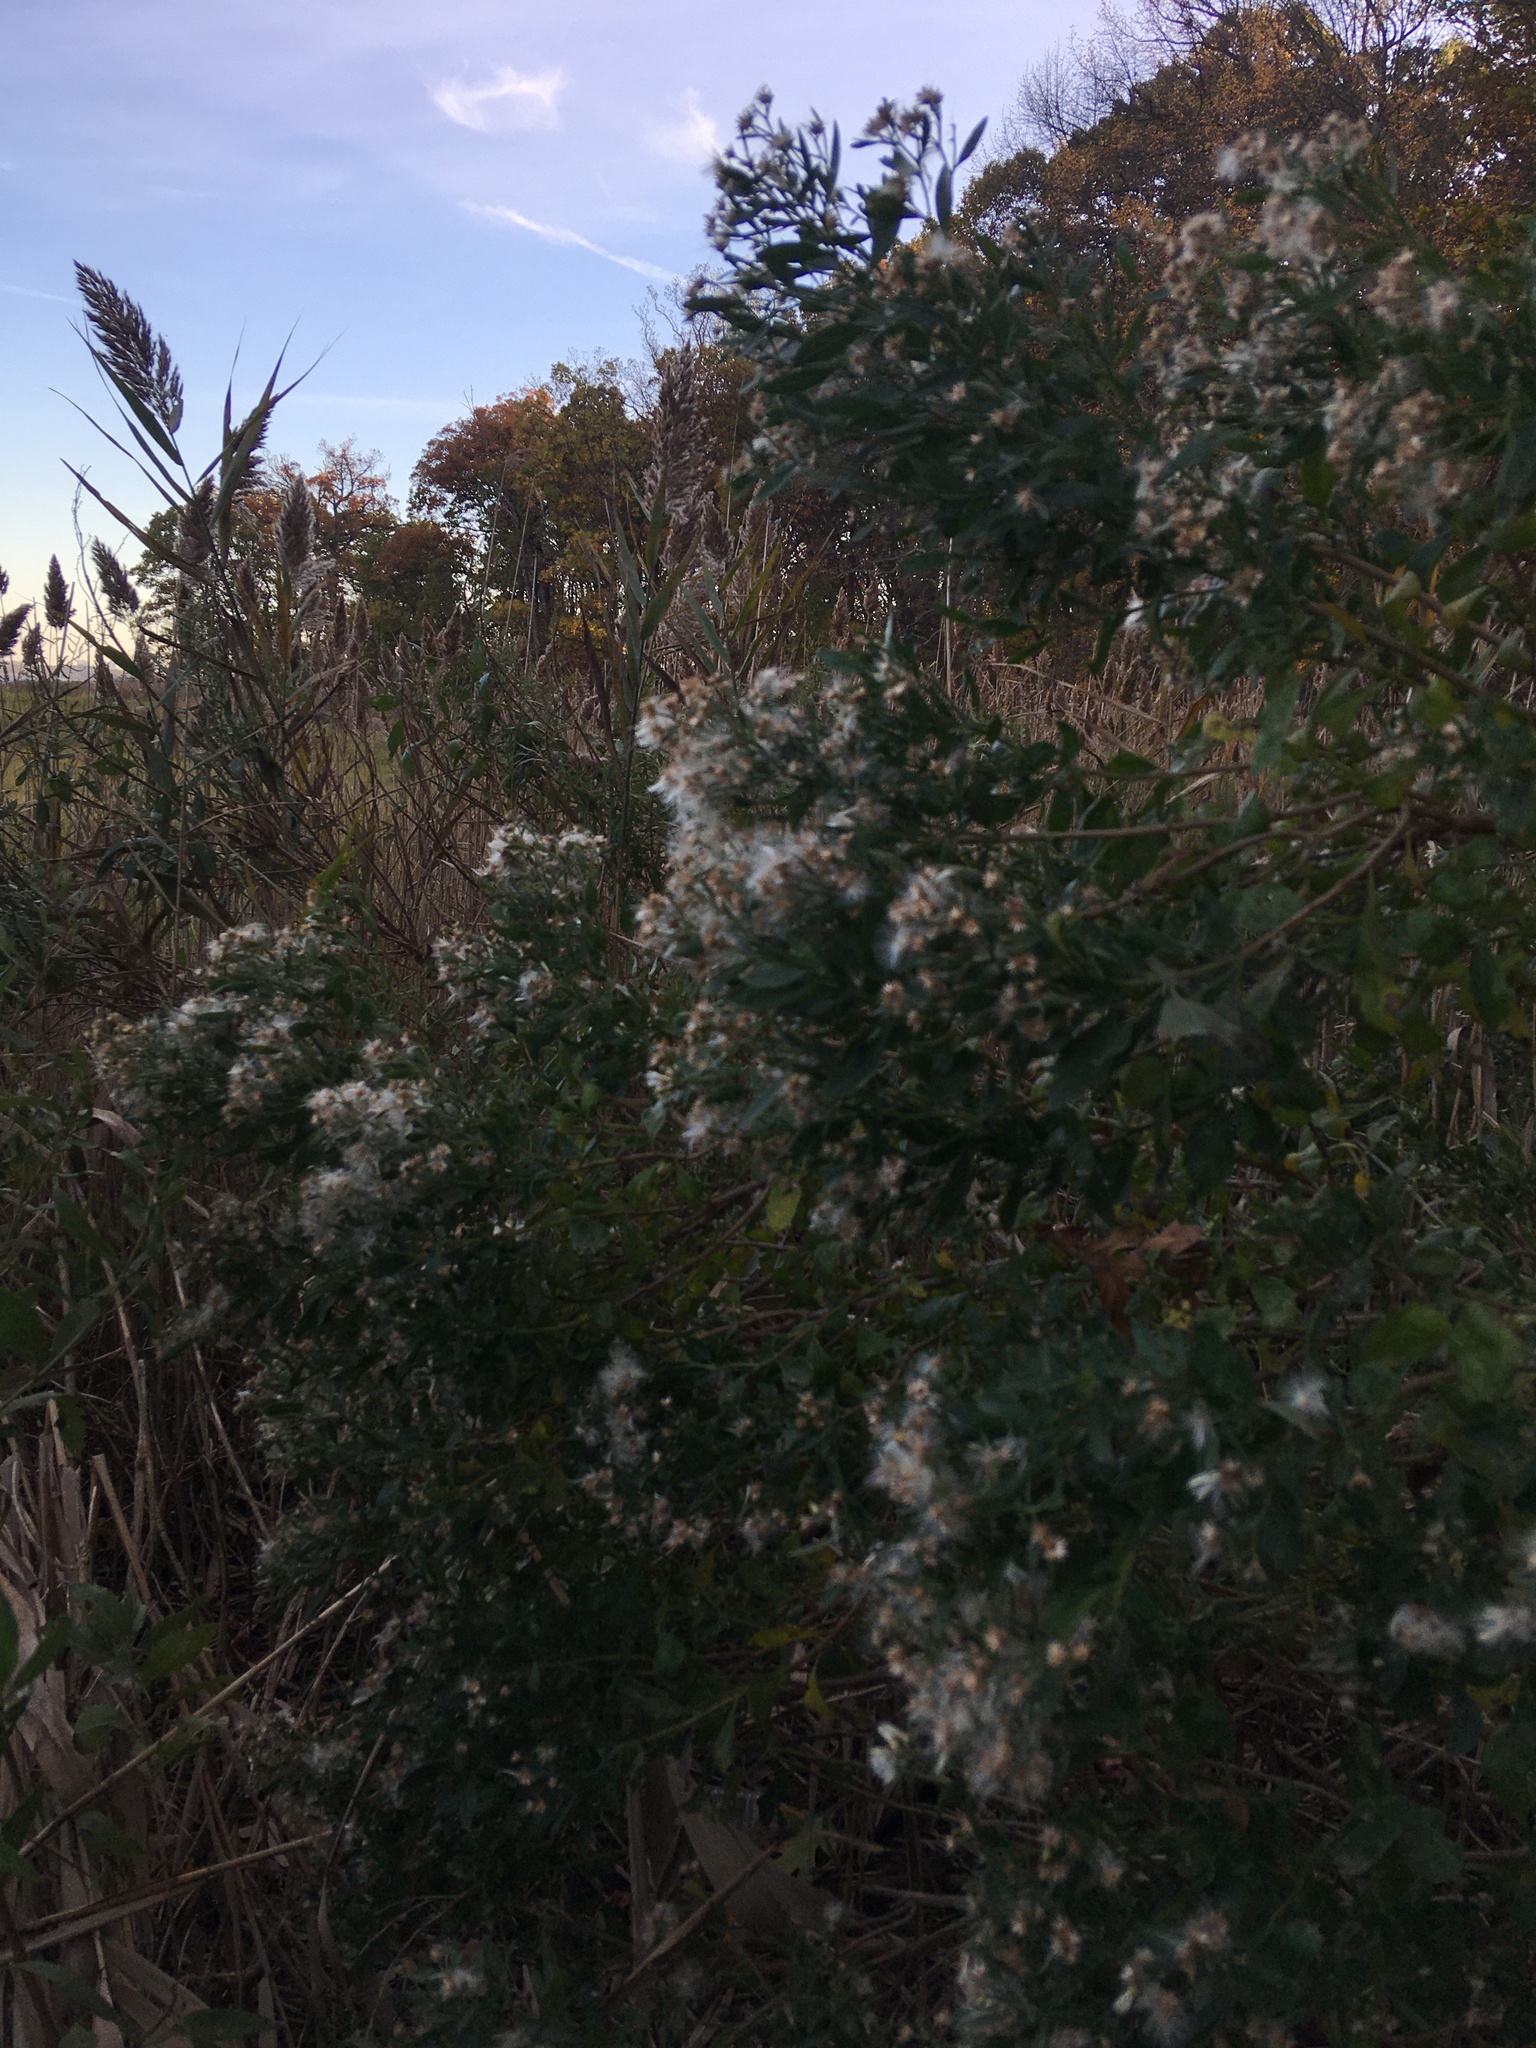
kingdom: Plantae
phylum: Tracheophyta
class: Magnoliopsida
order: Asterales
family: Asteraceae
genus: Baccharis
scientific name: Baccharis halimifolia
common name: Eastern baccharis
